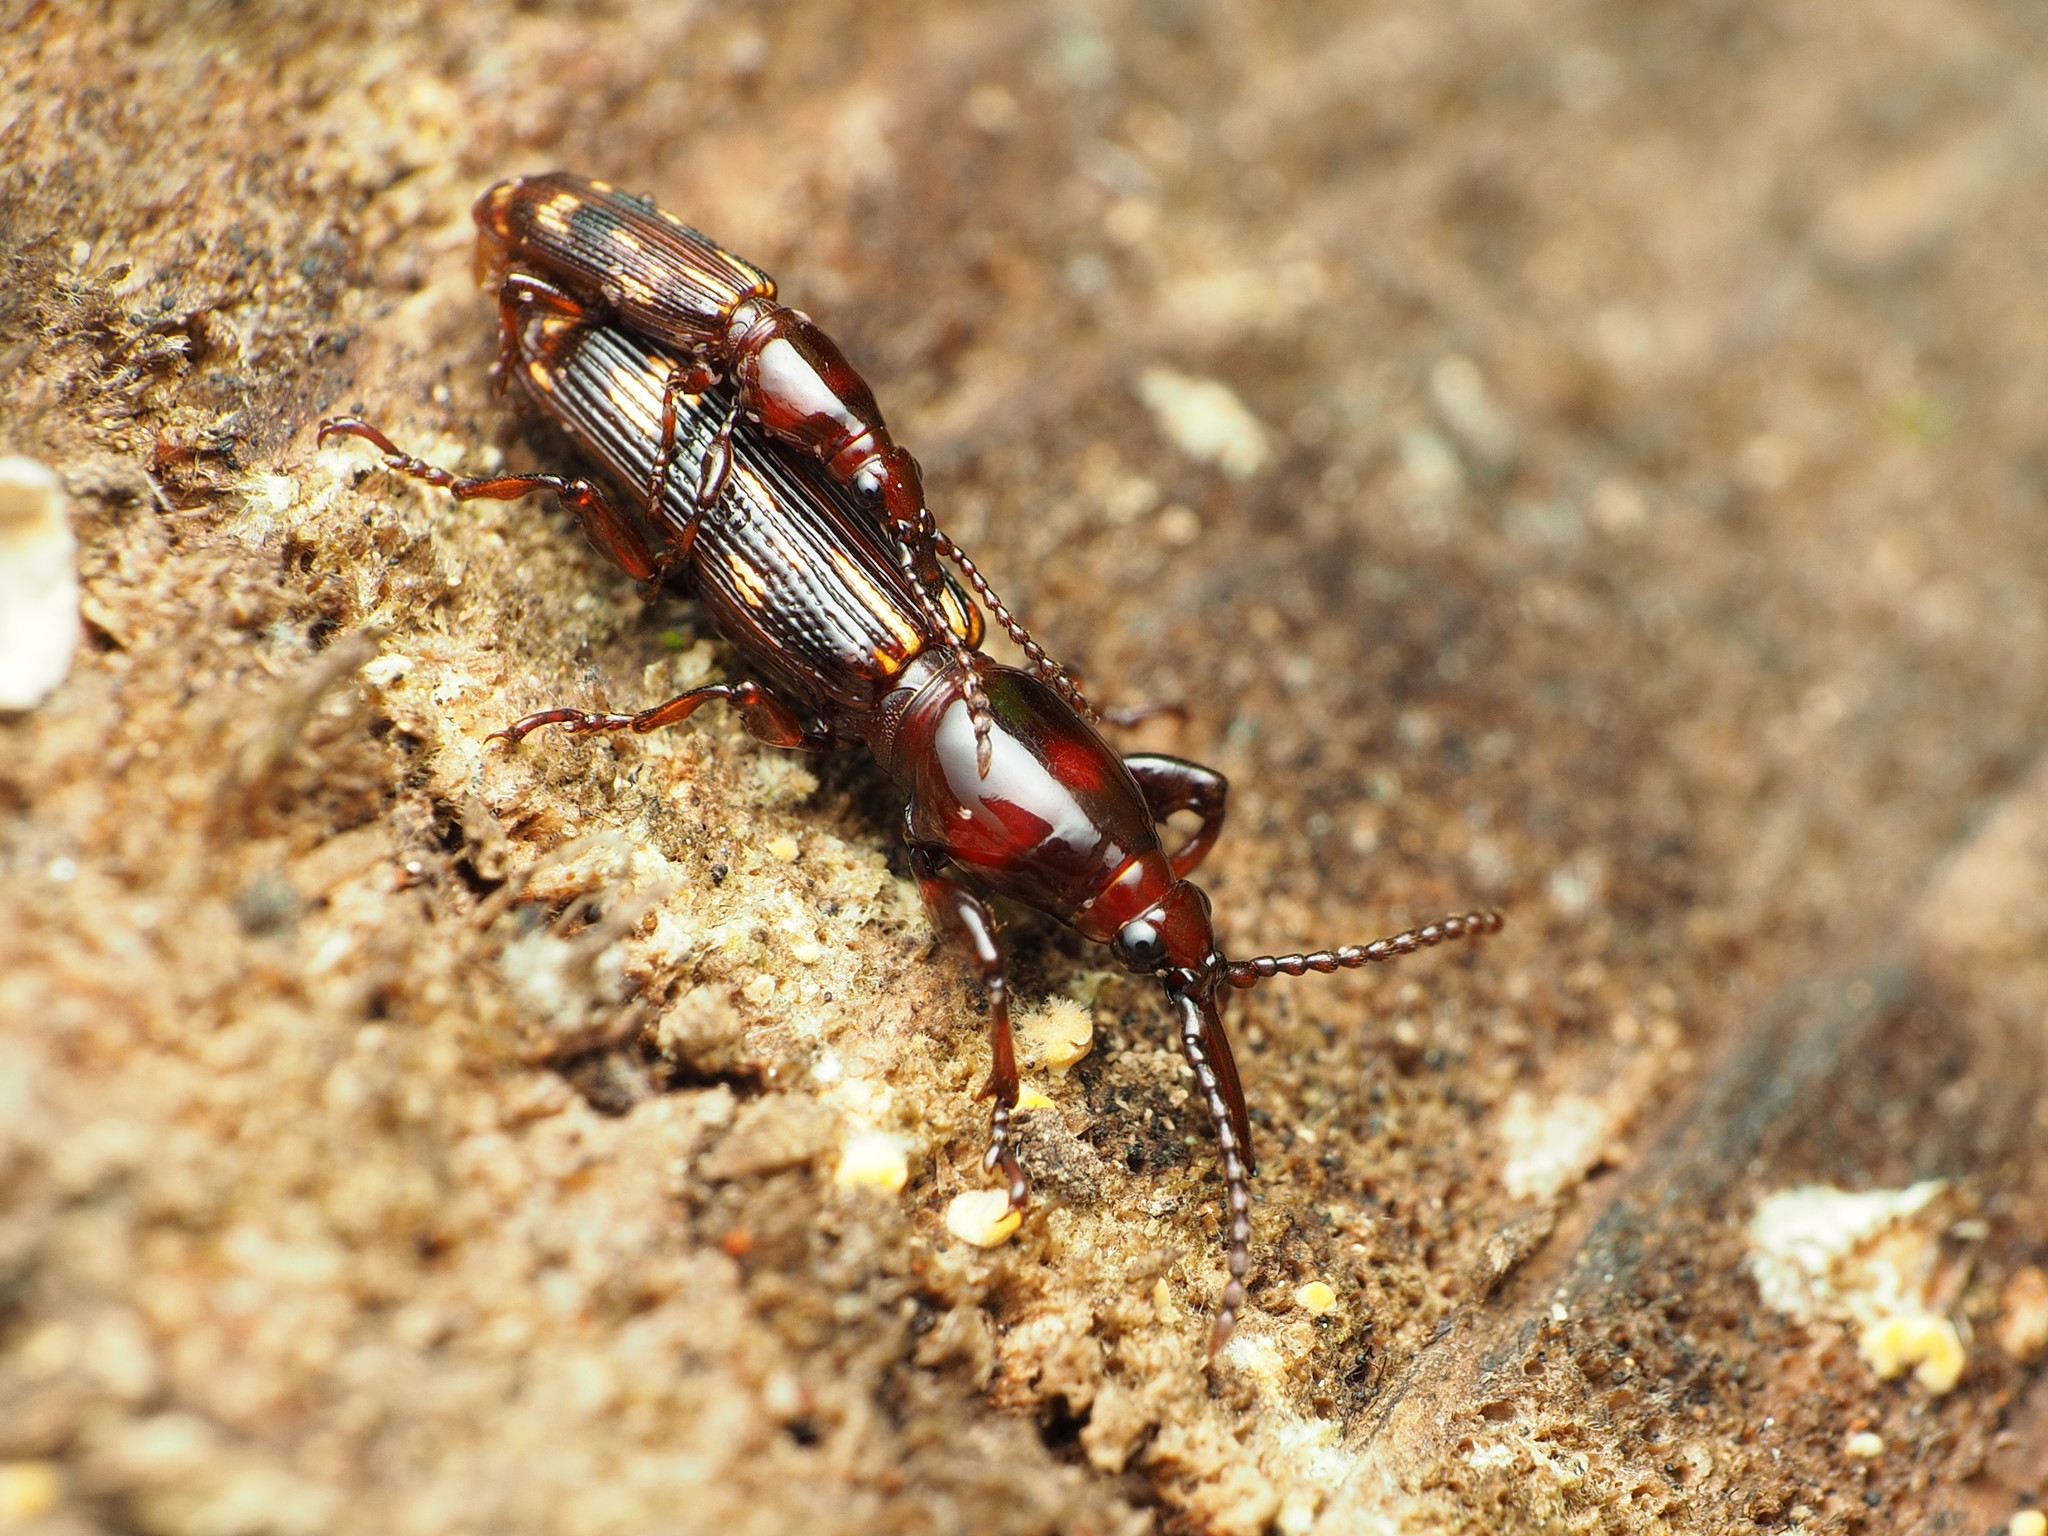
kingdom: Animalia
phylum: Arthropoda
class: Insecta
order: Coleoptera
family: Brentidae
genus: Arrenodes
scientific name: Arrenodes minutus
